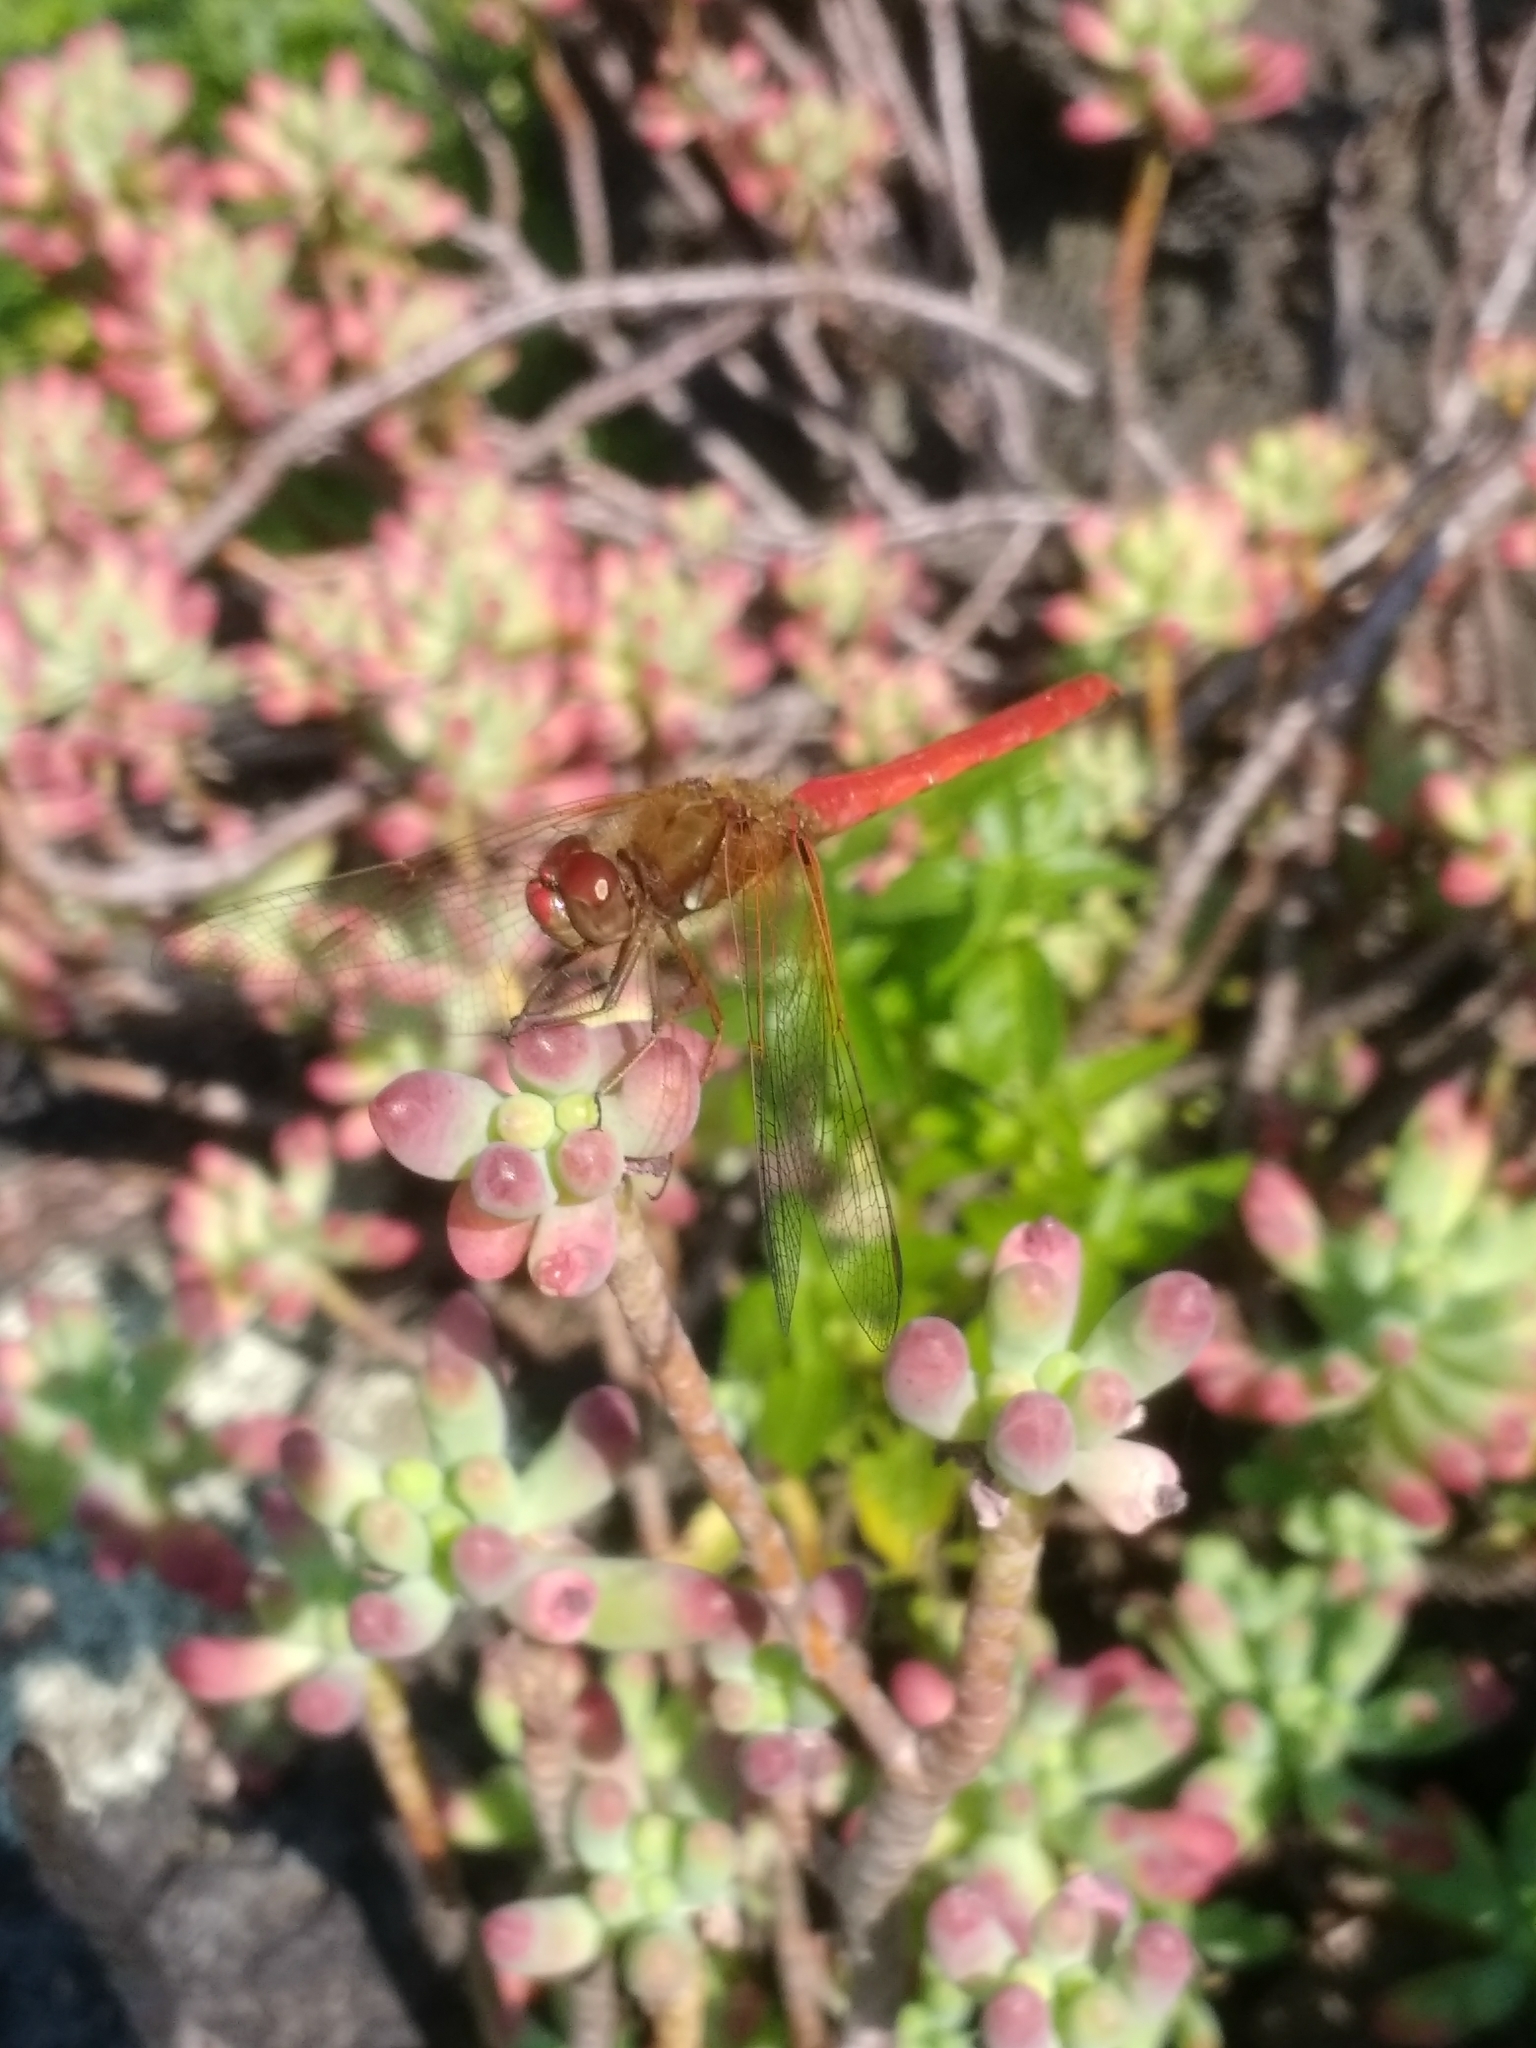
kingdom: Animalia
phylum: Arthropoda
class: Insecta
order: Odonata
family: Libellulidae
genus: Sympetrum
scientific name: Sympetrum illotum
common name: Cardinal meadowhawk
